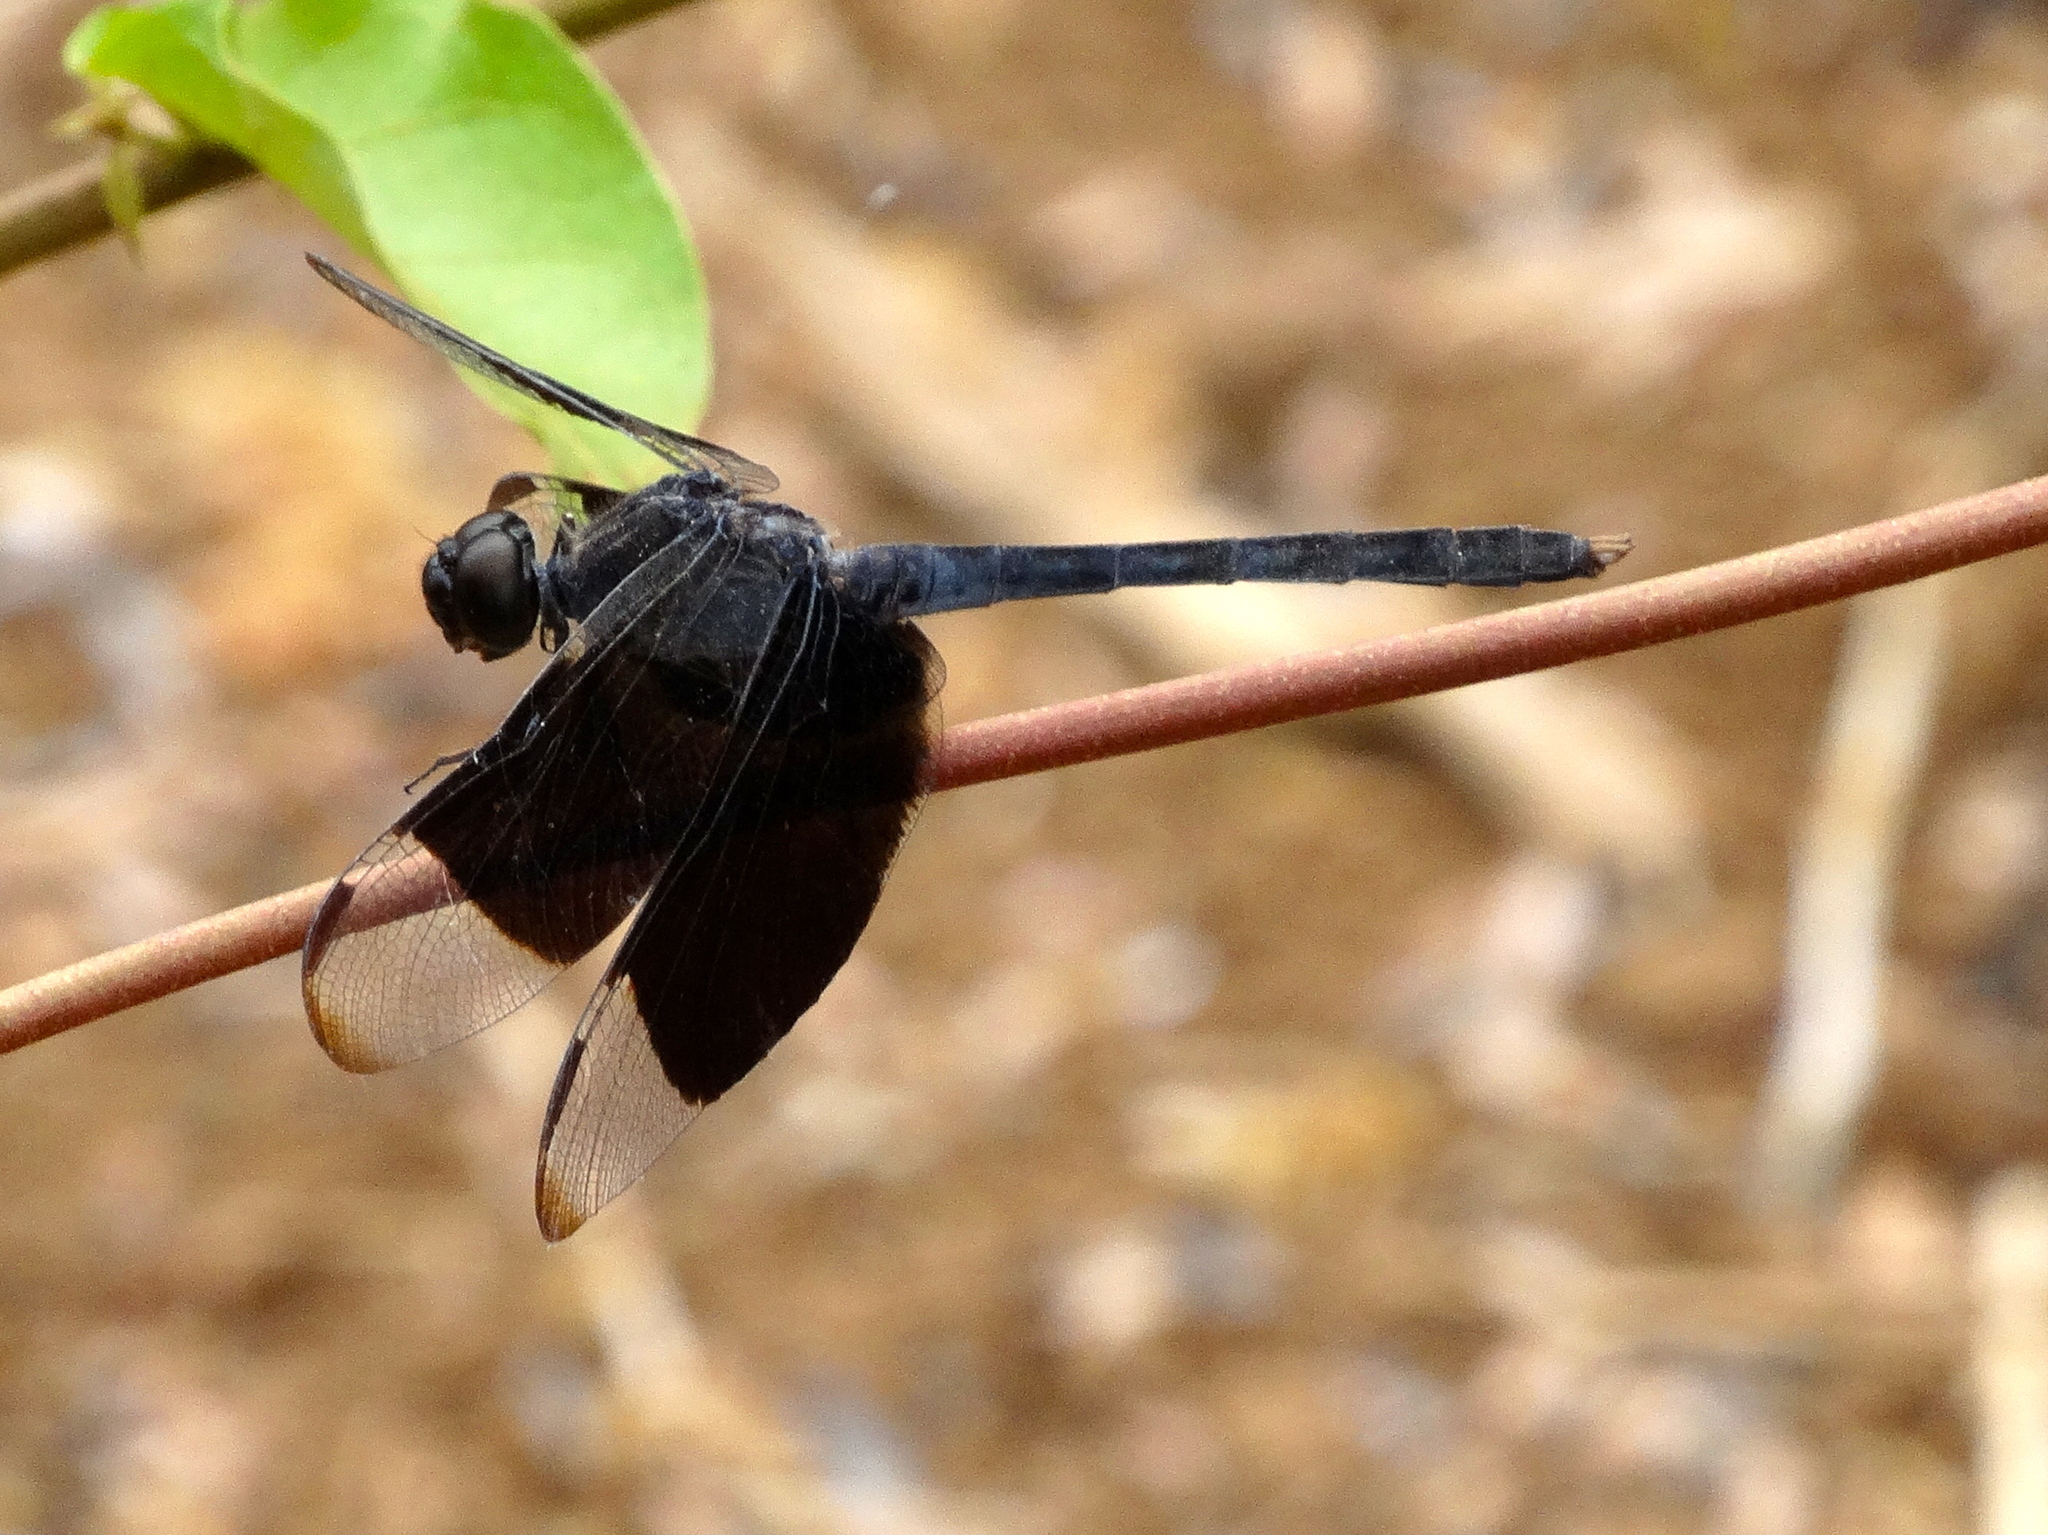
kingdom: Animalia
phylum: Arthropoda
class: Insecta
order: Odonata
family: Libellulidae
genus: Erythrodiplax
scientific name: Erythrodiplax funerea
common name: Black-winged dragonlet
